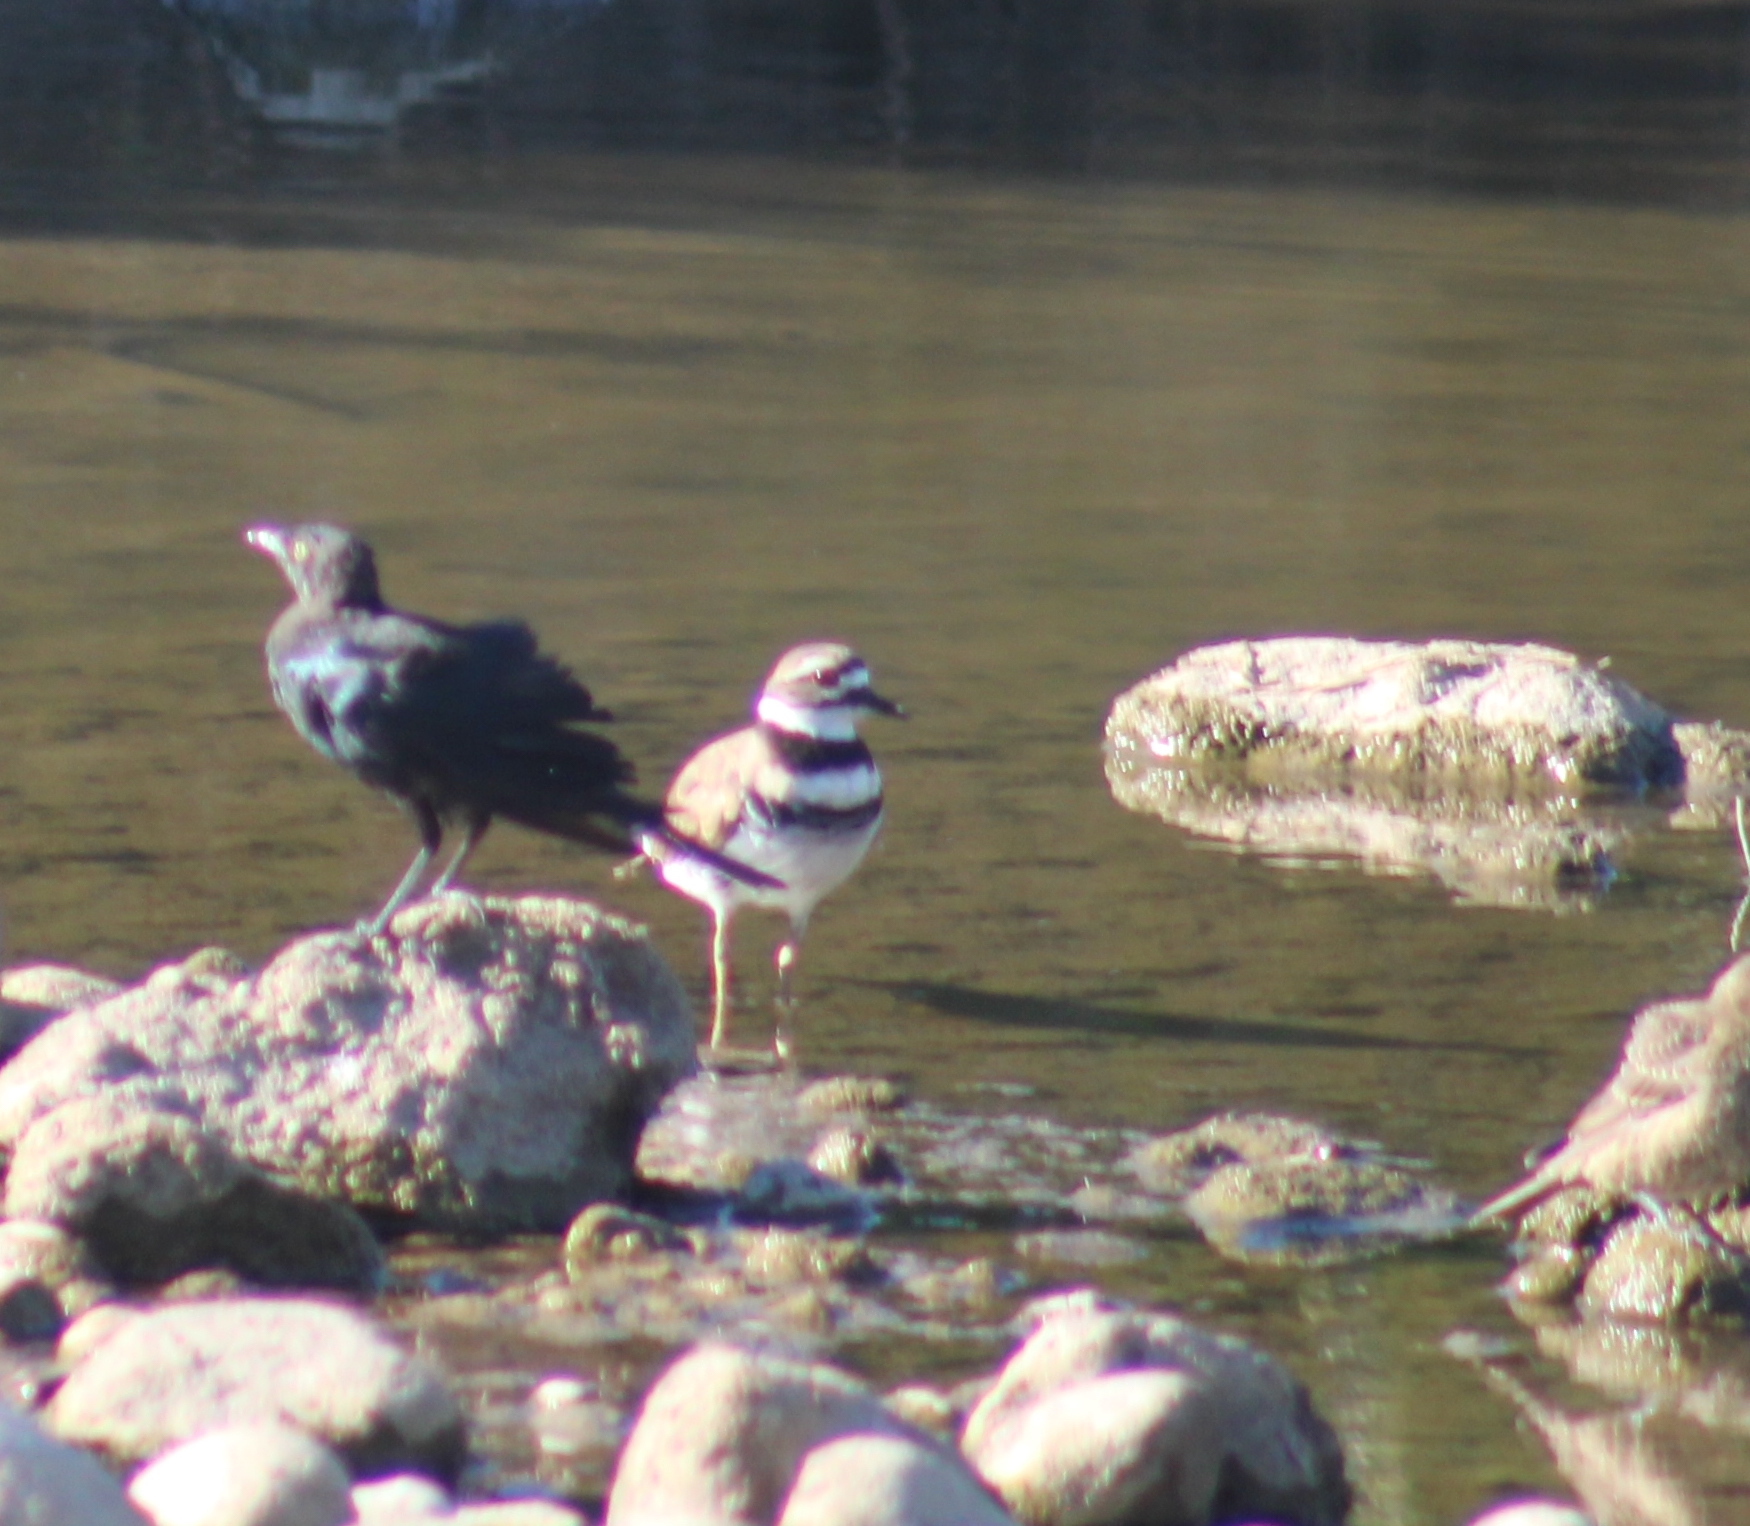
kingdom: Animalia
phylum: Chordata
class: Aves
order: Charadriiformes
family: Charadriidae
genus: Charadrius
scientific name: Charadrius vociferus
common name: Killdeer
